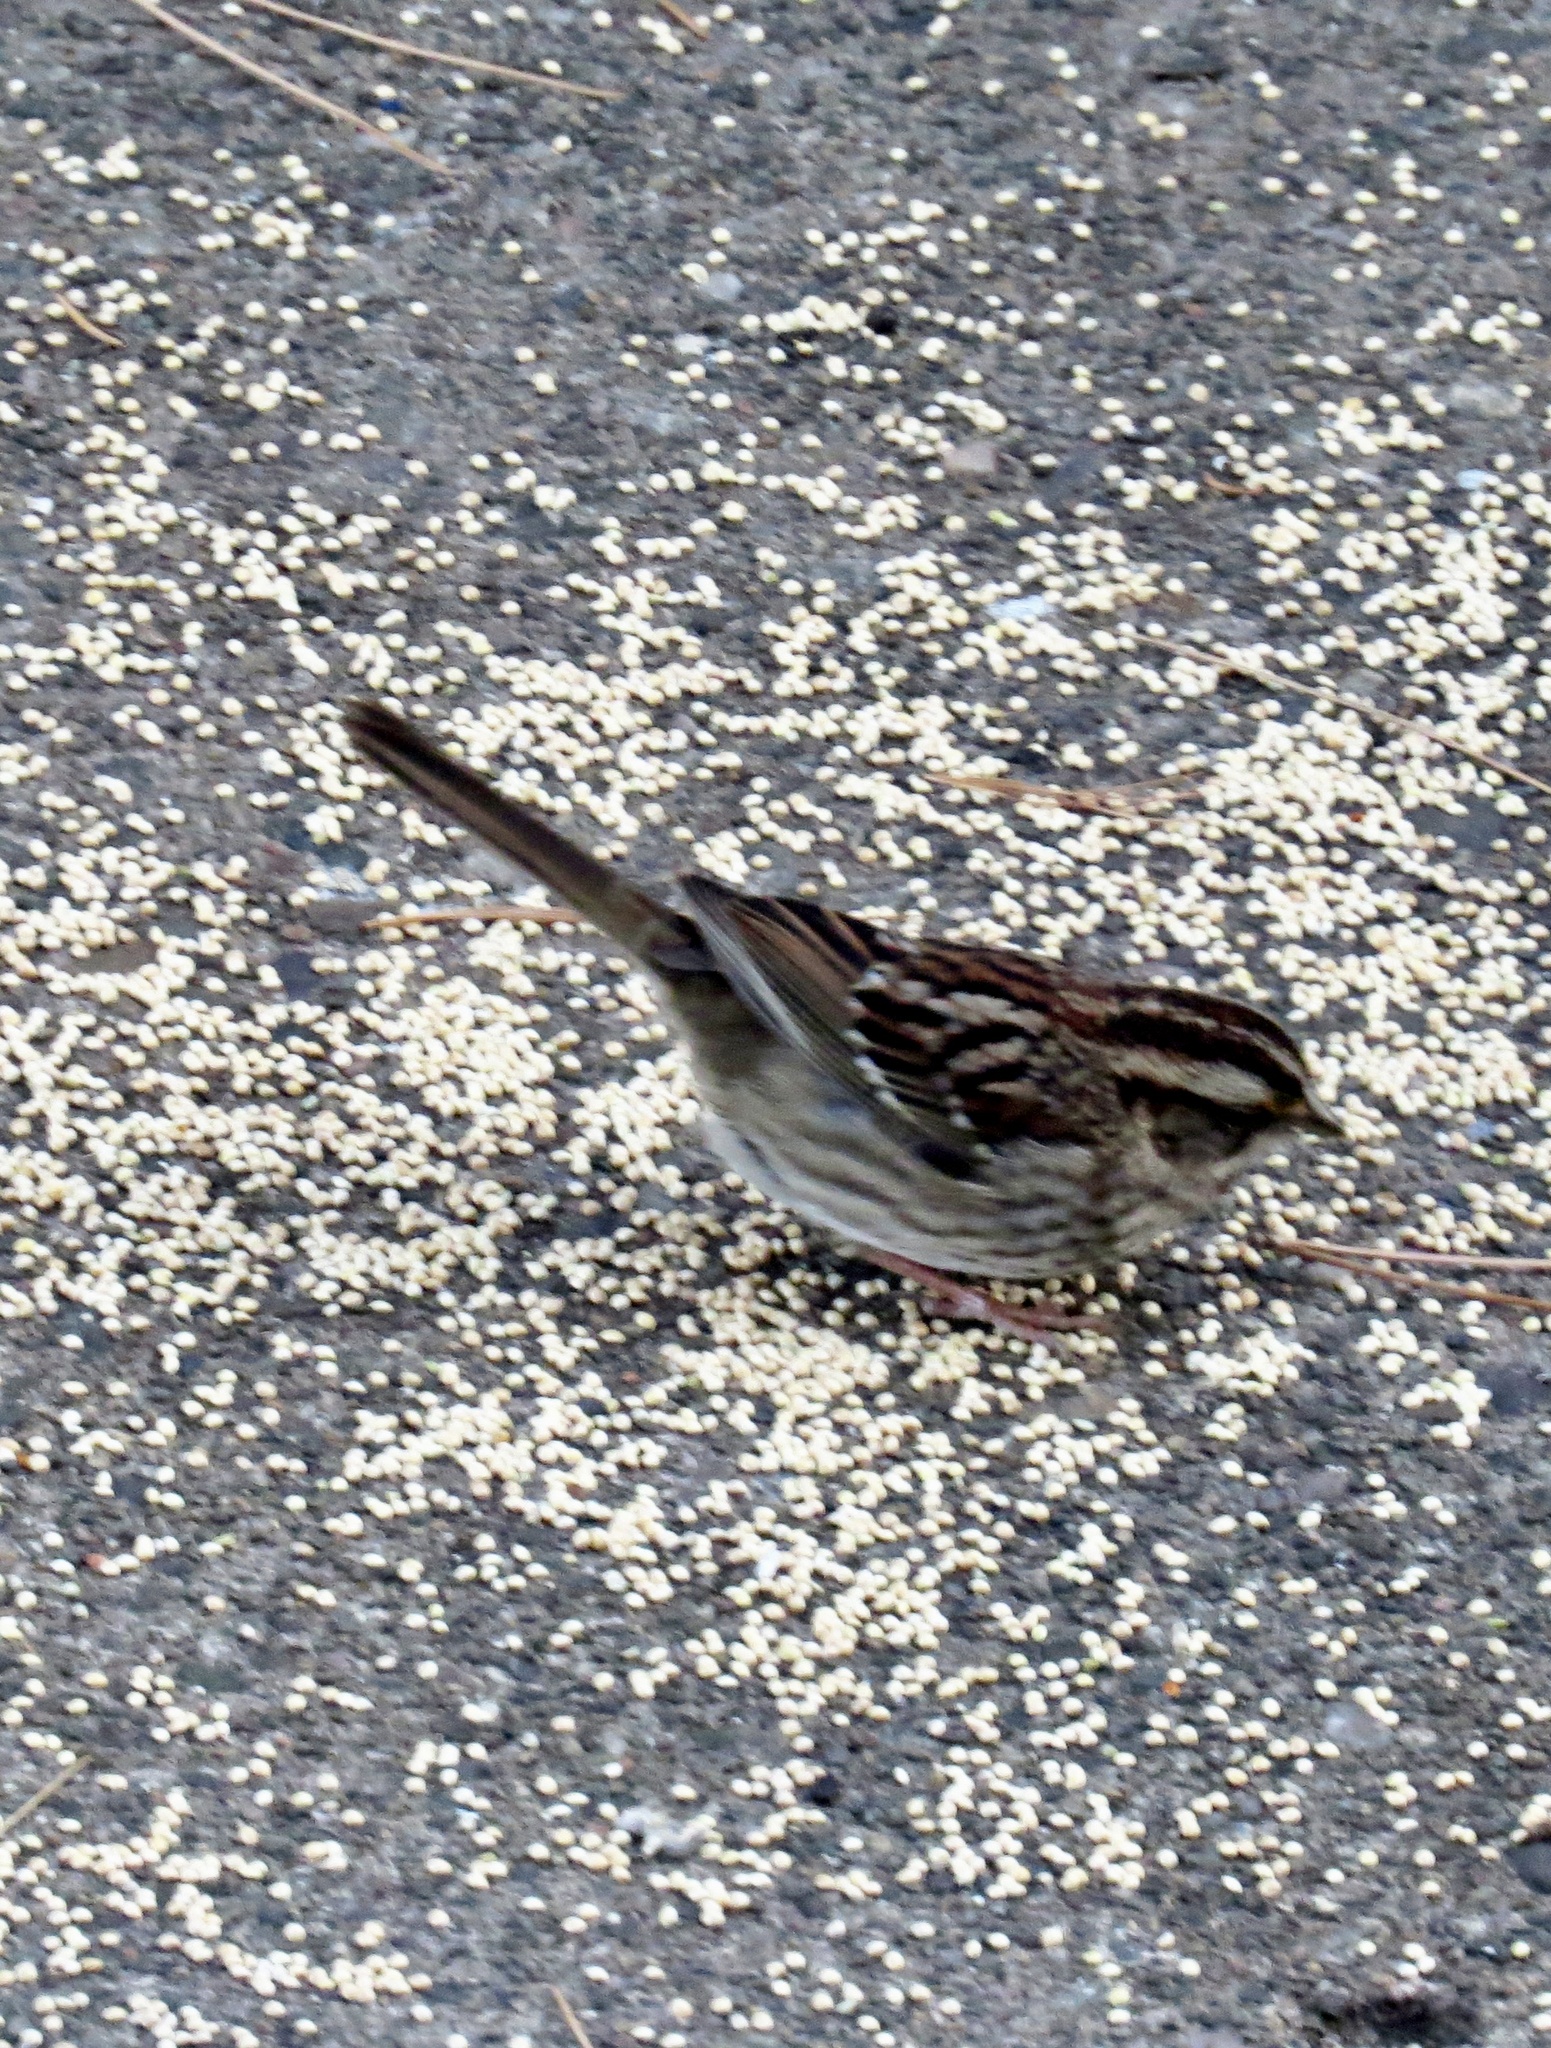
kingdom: Animalia
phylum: Chordata
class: Aves
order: Passeriformes
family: Passerellidae
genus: Zonotrichia
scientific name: Zonotrichia albicollis
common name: White-throated sparrow
